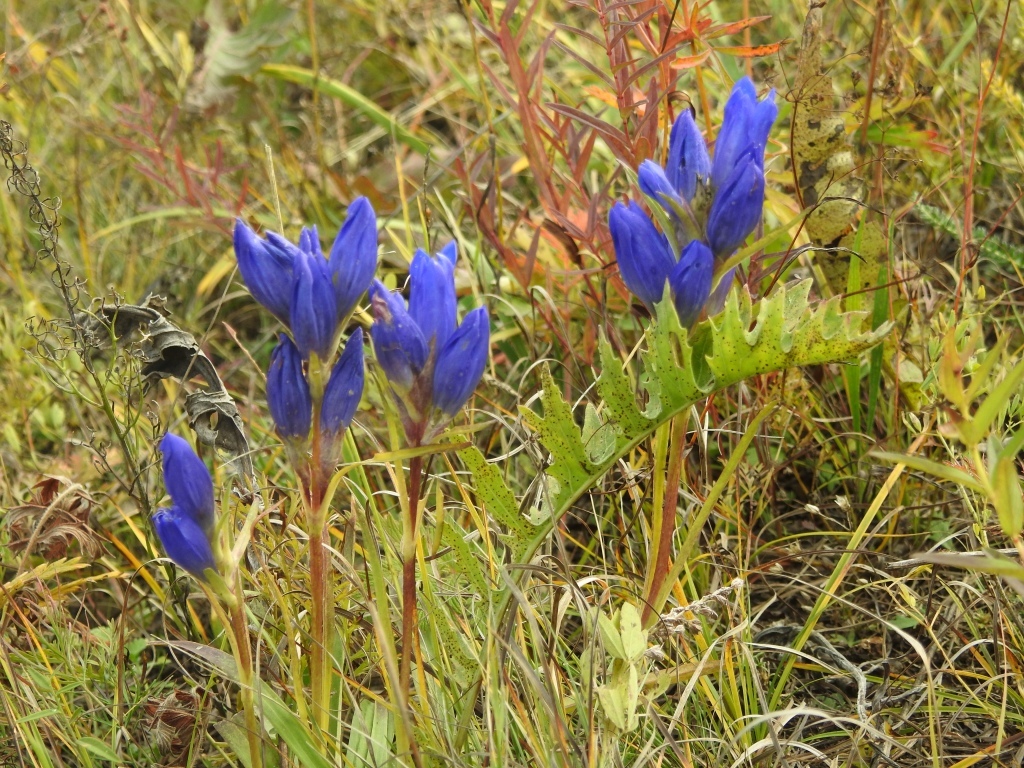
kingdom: Plantae
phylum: Tracheophyta
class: Magnoliopsida
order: Gentianales
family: Gentianaceae
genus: Gentiana
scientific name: Gentiana triflora
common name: Three-flower gentian
